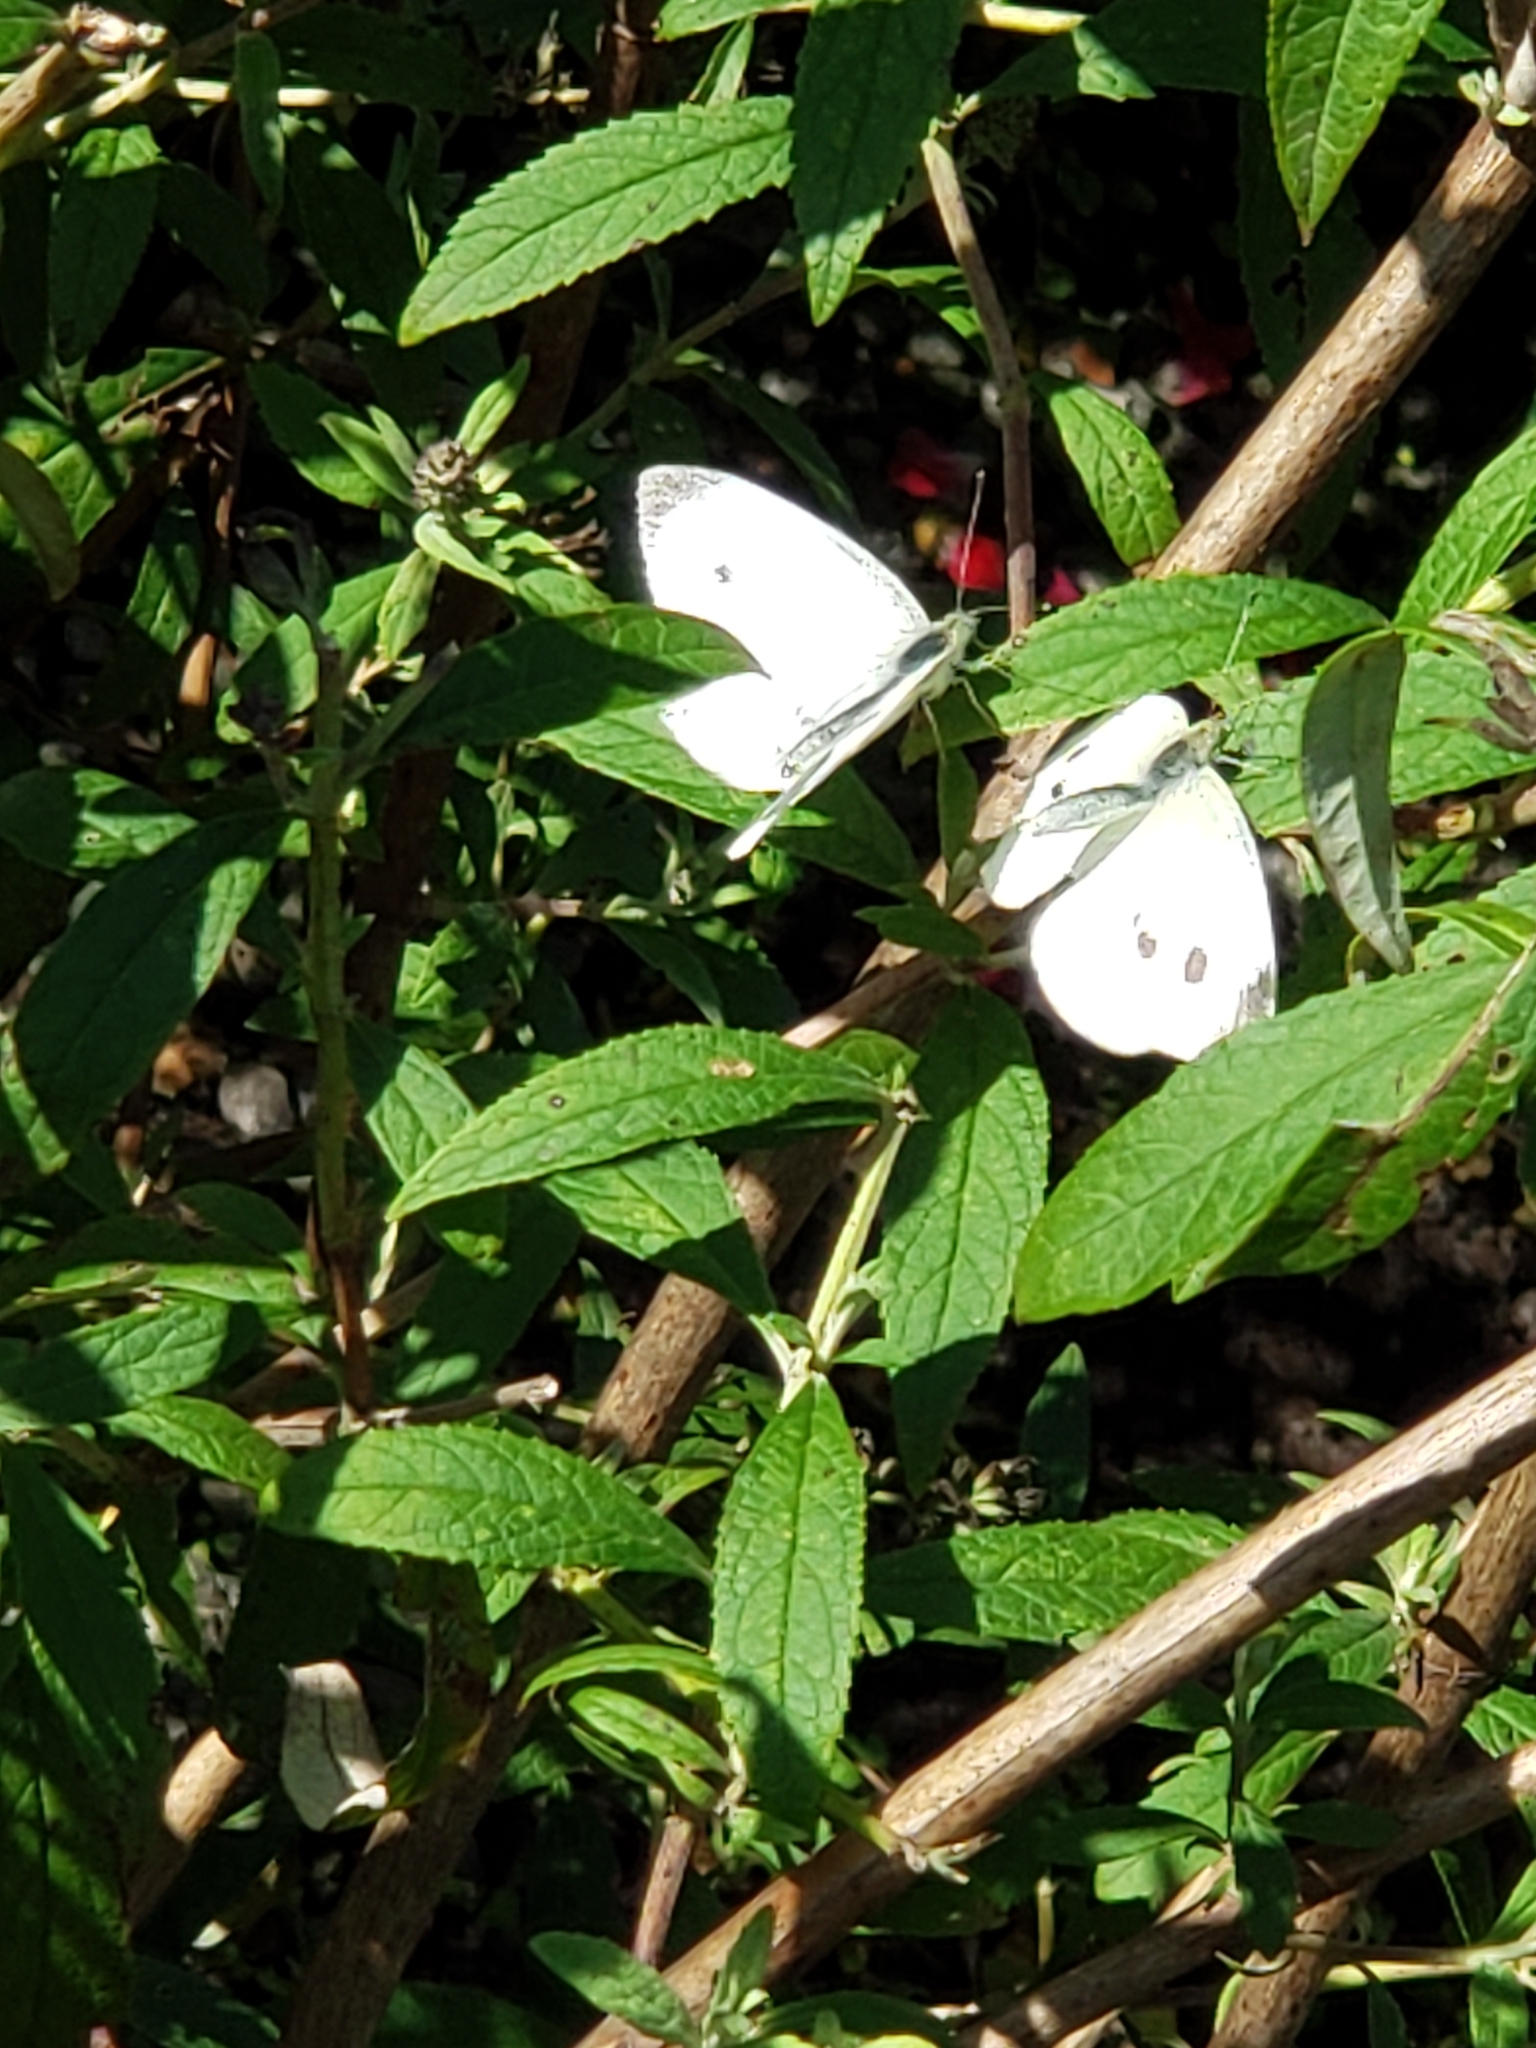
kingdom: Animalia
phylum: Arthropoda
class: Insecta
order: Lepidoptera
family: Pieridae
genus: Pieris
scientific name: Pieris rapae
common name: Small white
